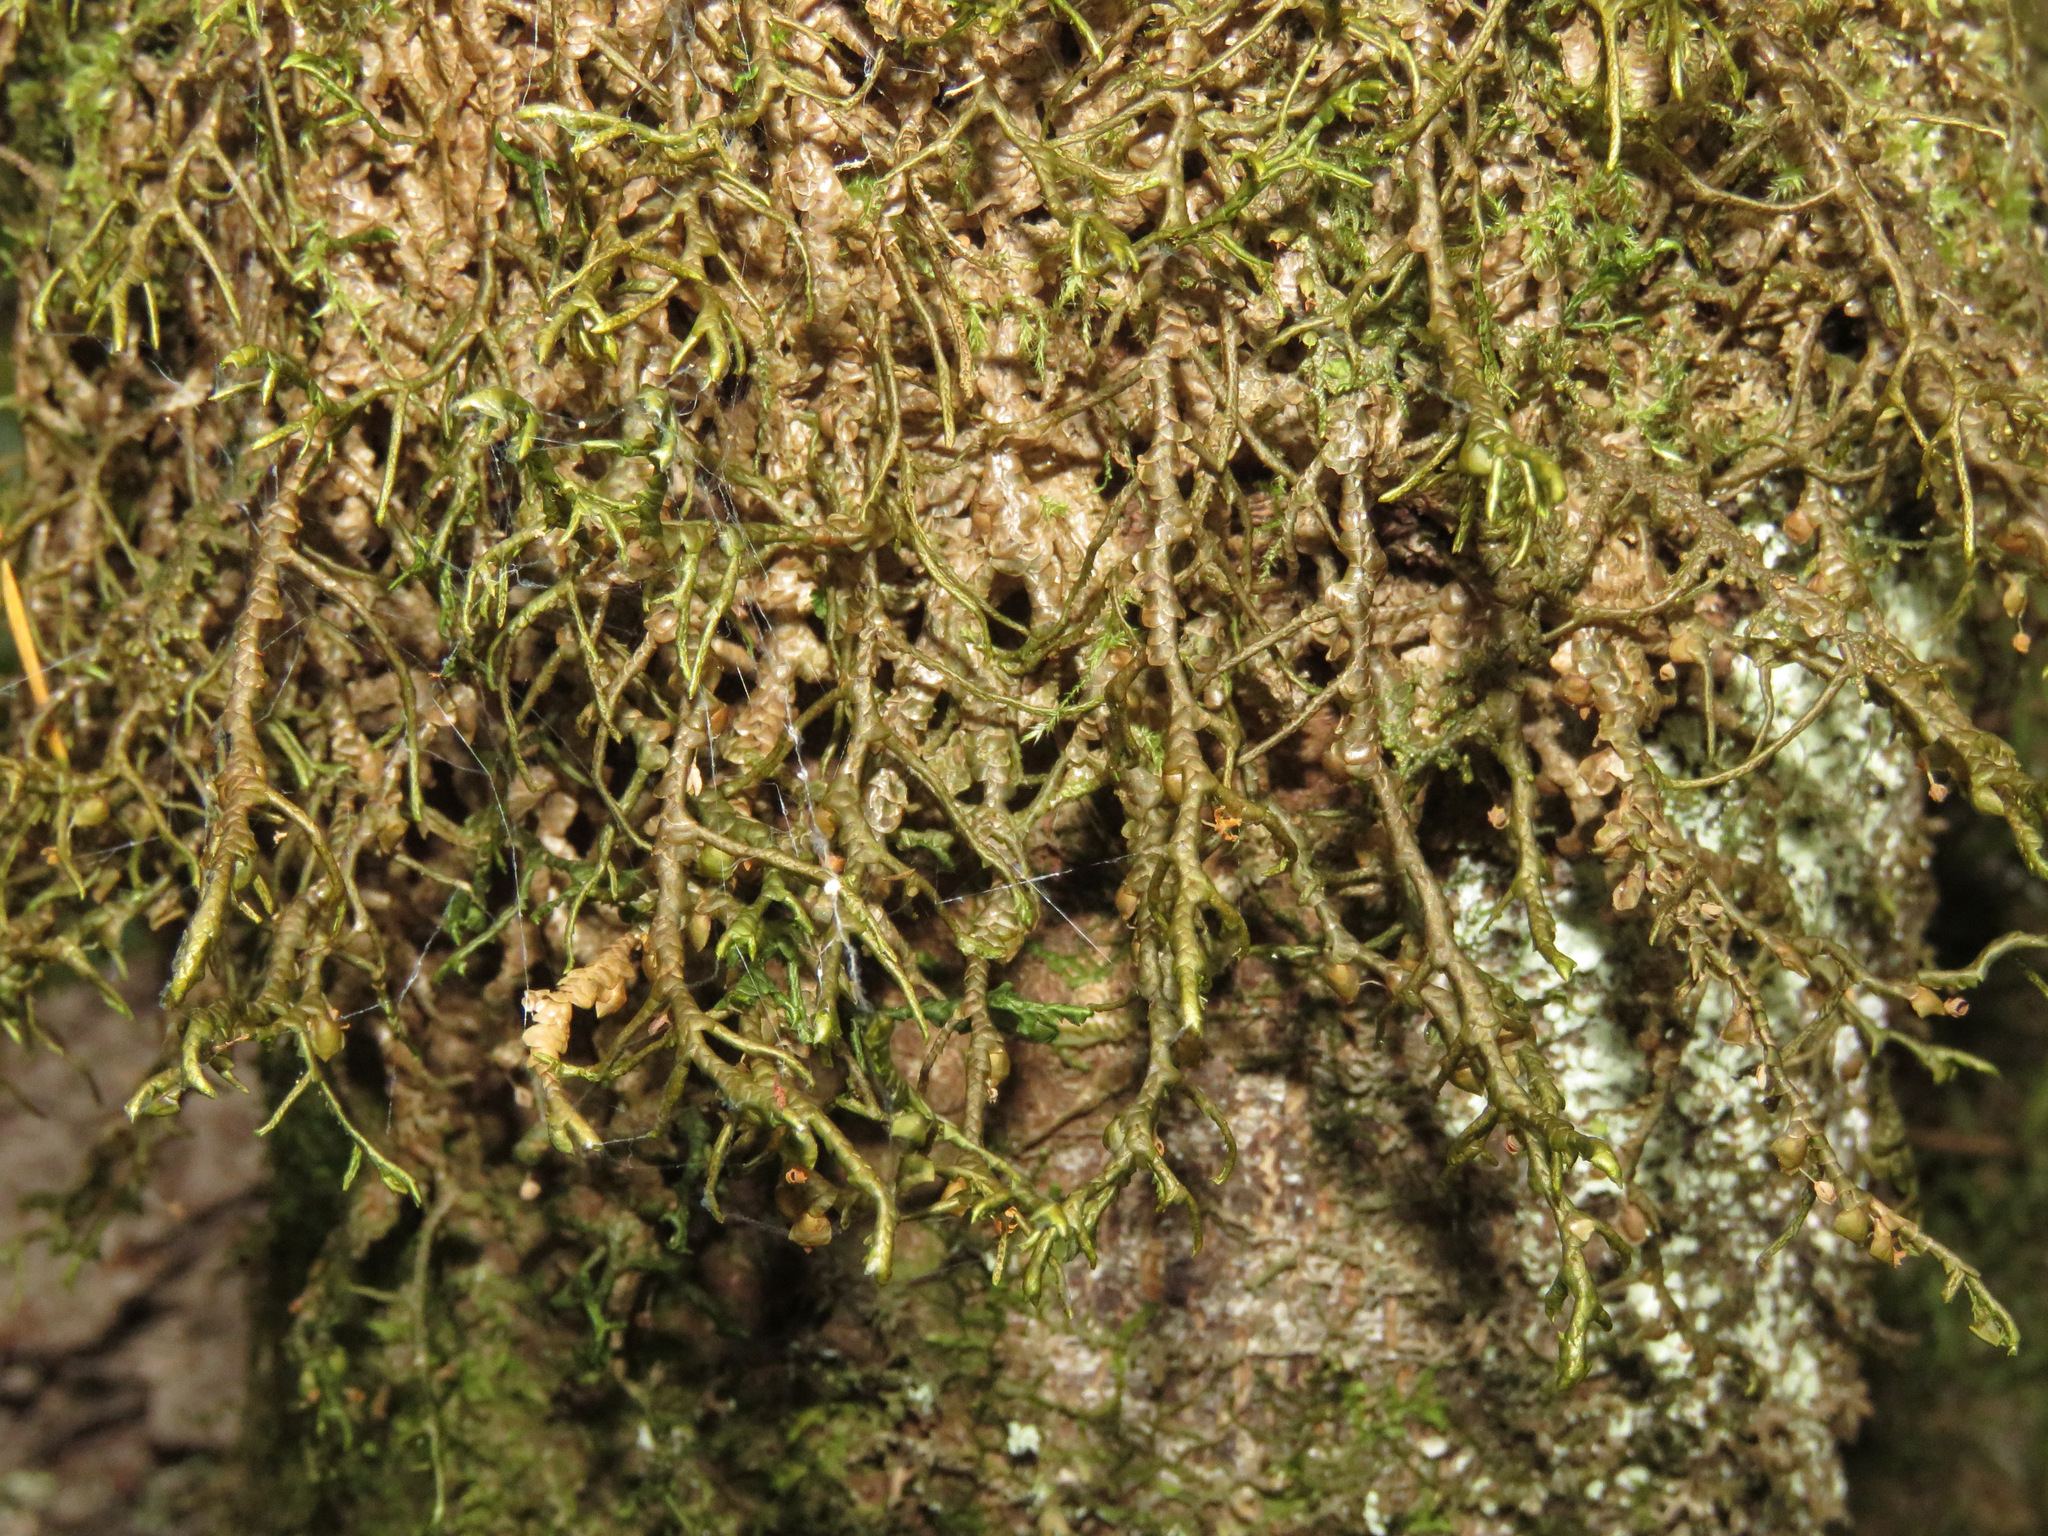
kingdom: Plantae
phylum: Marchantiophyta
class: Jungermanniopsida
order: Porellales
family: Porellaceae
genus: Porella
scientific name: Porella navicularis
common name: Tree ruffle liverwort
